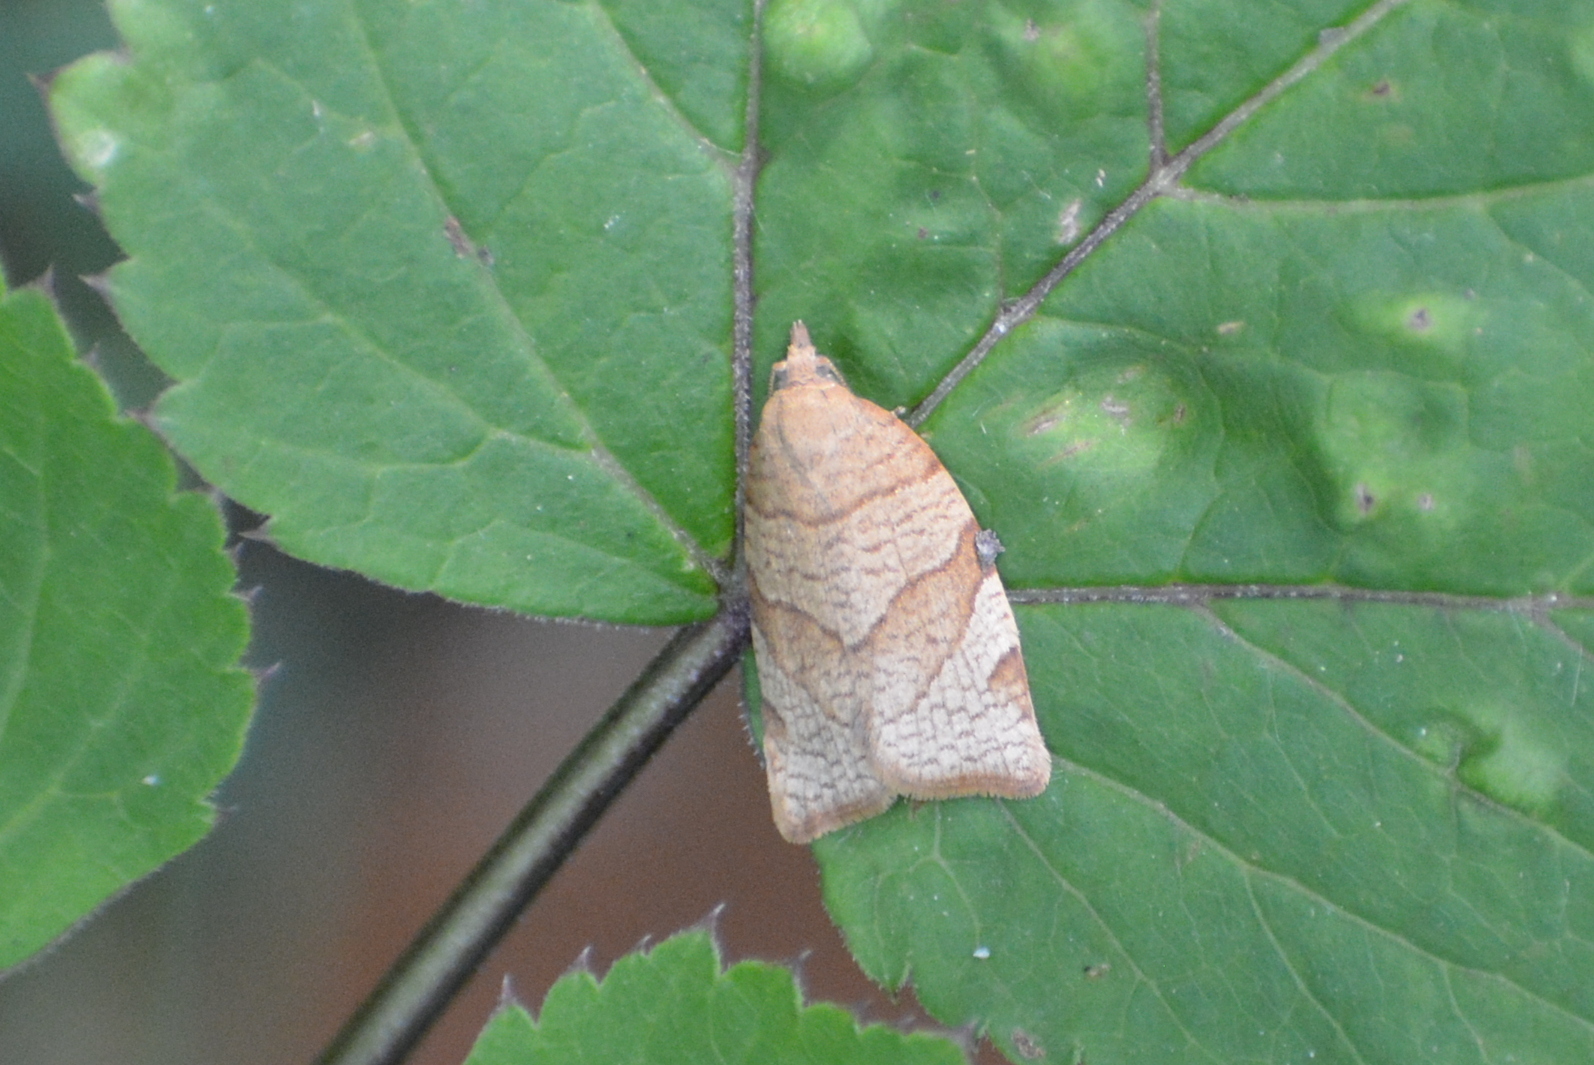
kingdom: Animalia
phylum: Arthropoda
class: Insecta
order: Lepidoptera
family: Tortricidae
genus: Pandemis
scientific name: Pandemis cerasana
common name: Barred fruit-tree tortrix
